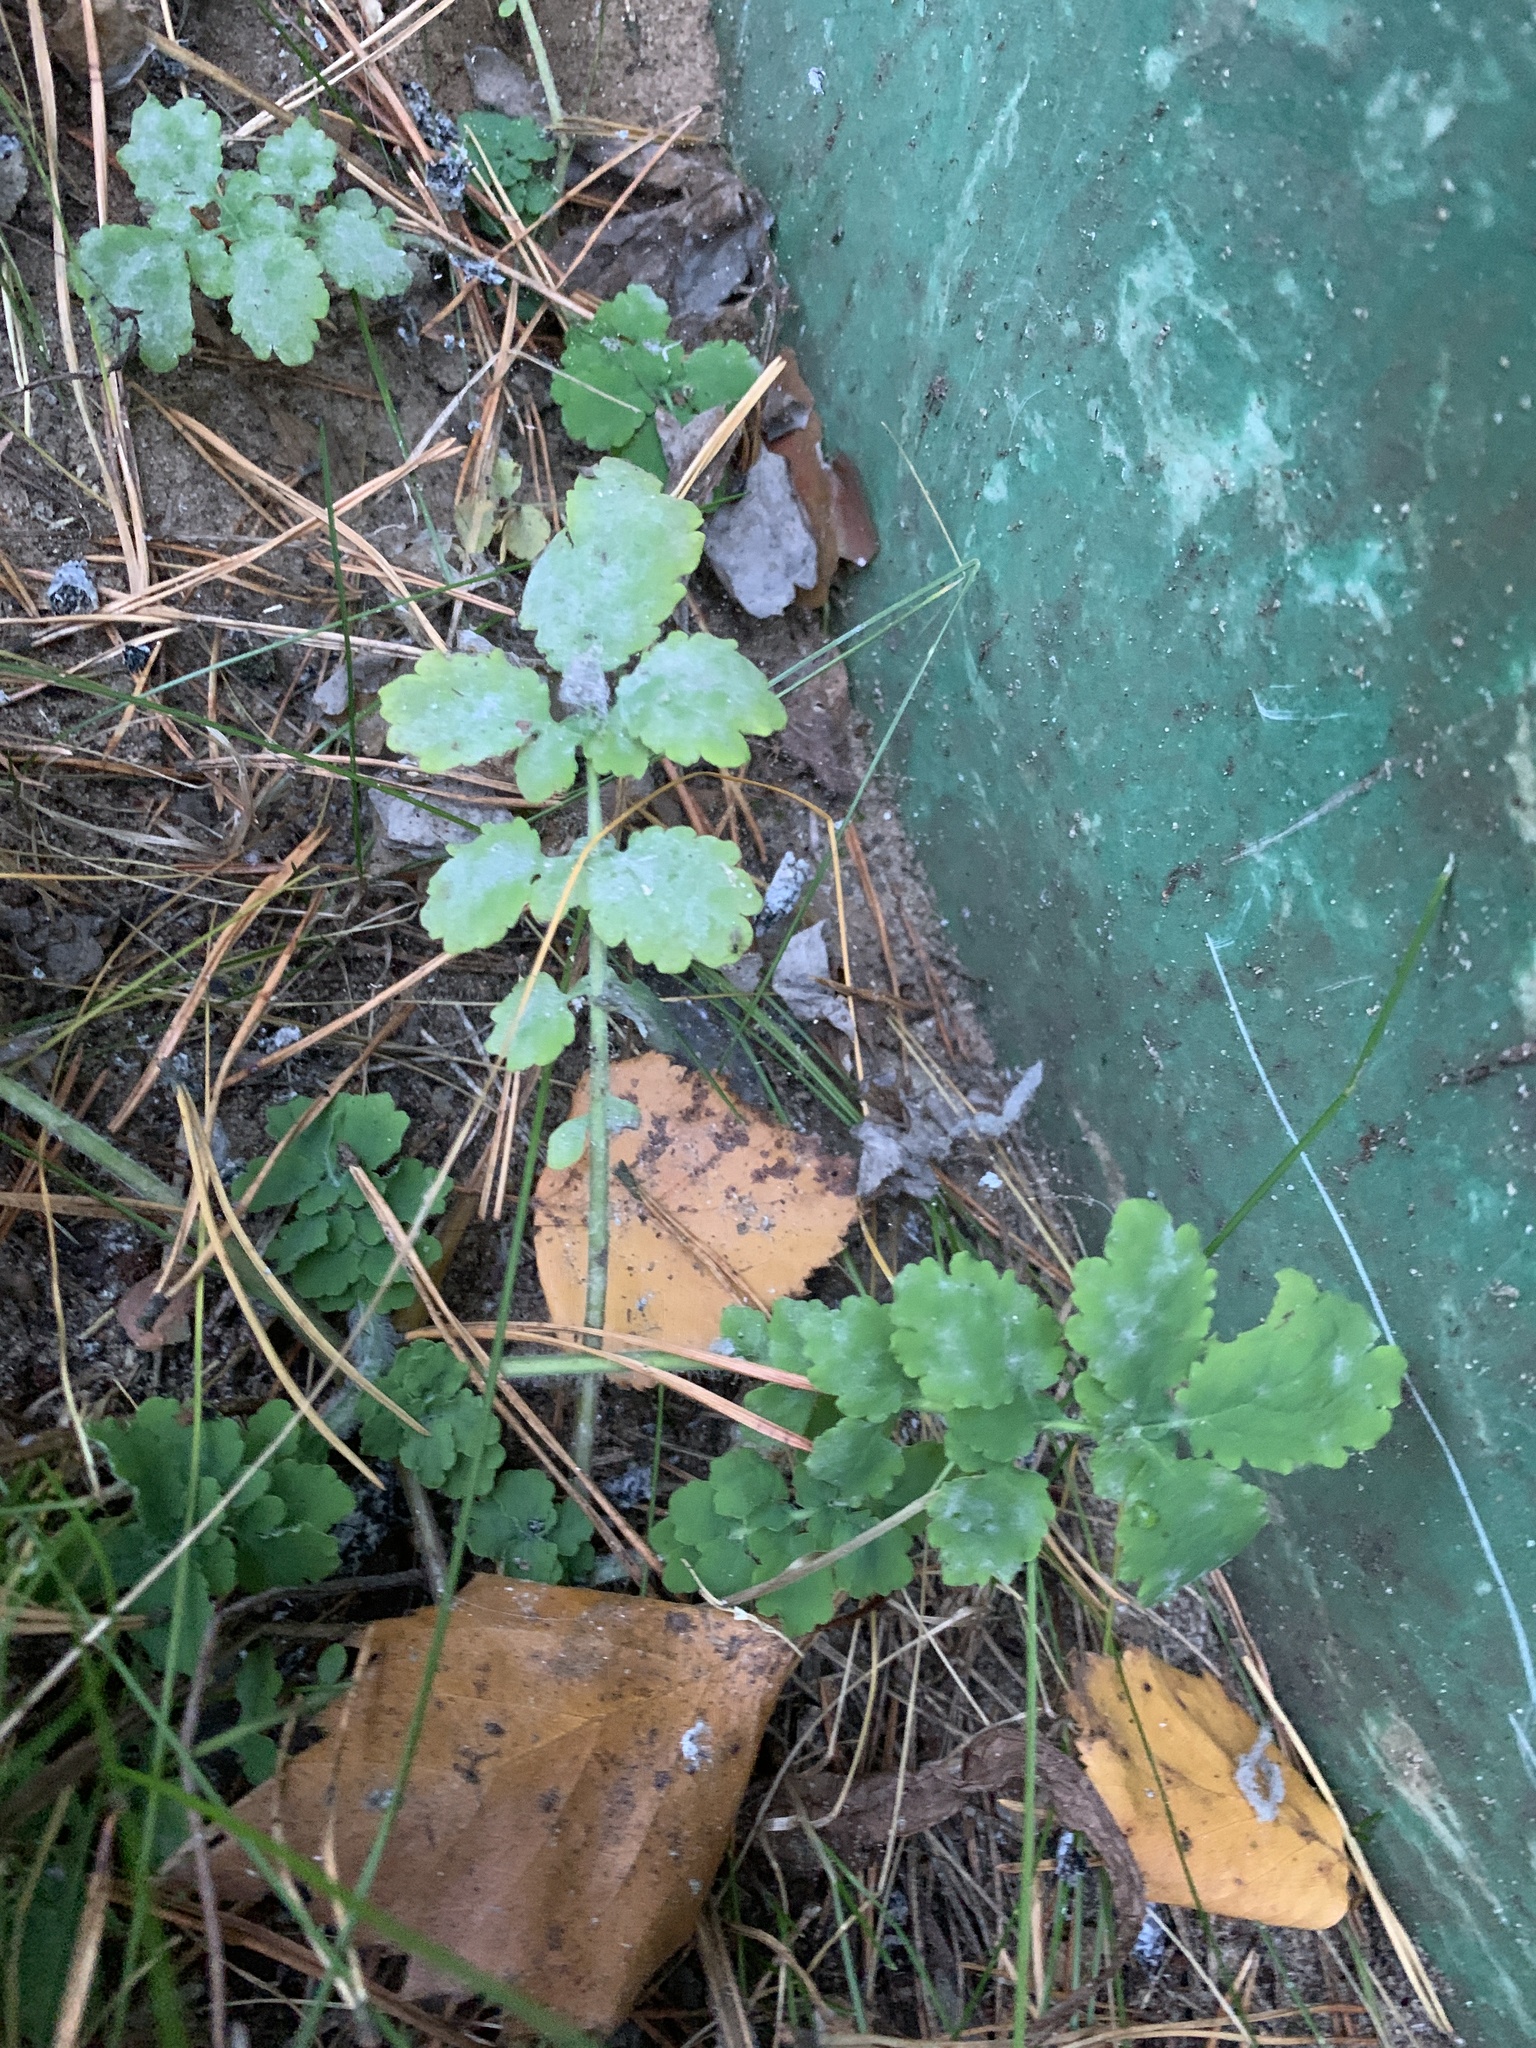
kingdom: Plantae
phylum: Tracheophyta
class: Magnoliopsida
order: Ranunculales
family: Papaveraceae
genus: Chelidonium
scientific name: Chelidonium majus
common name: Greater celandine
